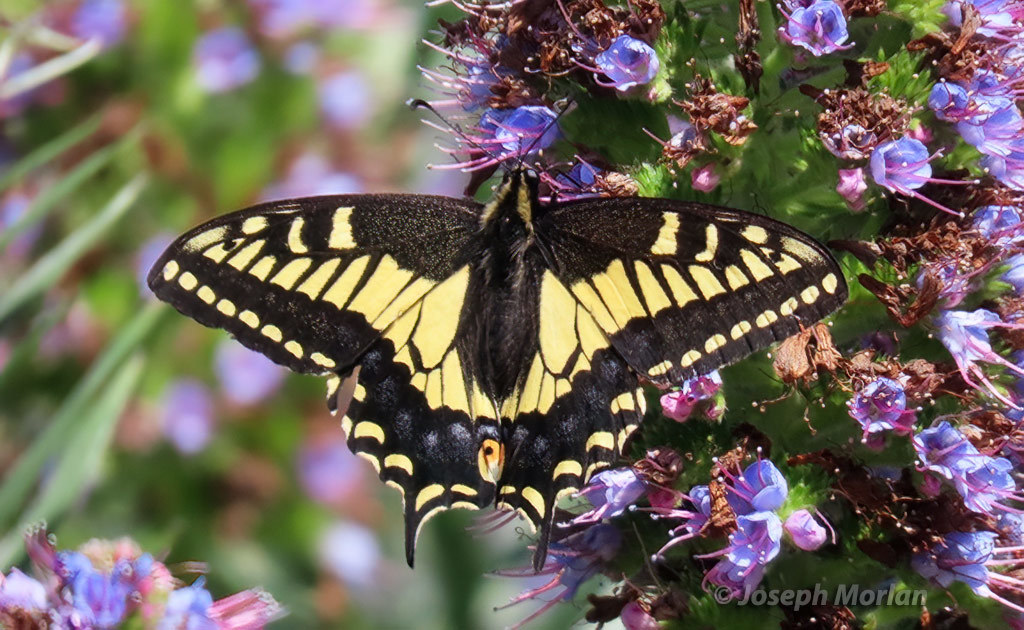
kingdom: Animalia
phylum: Arthropoda
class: Insecta
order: Lepidoptera
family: Papilionidae
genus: Papilio
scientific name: Papilio zelicaon
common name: Anise swallowtail
